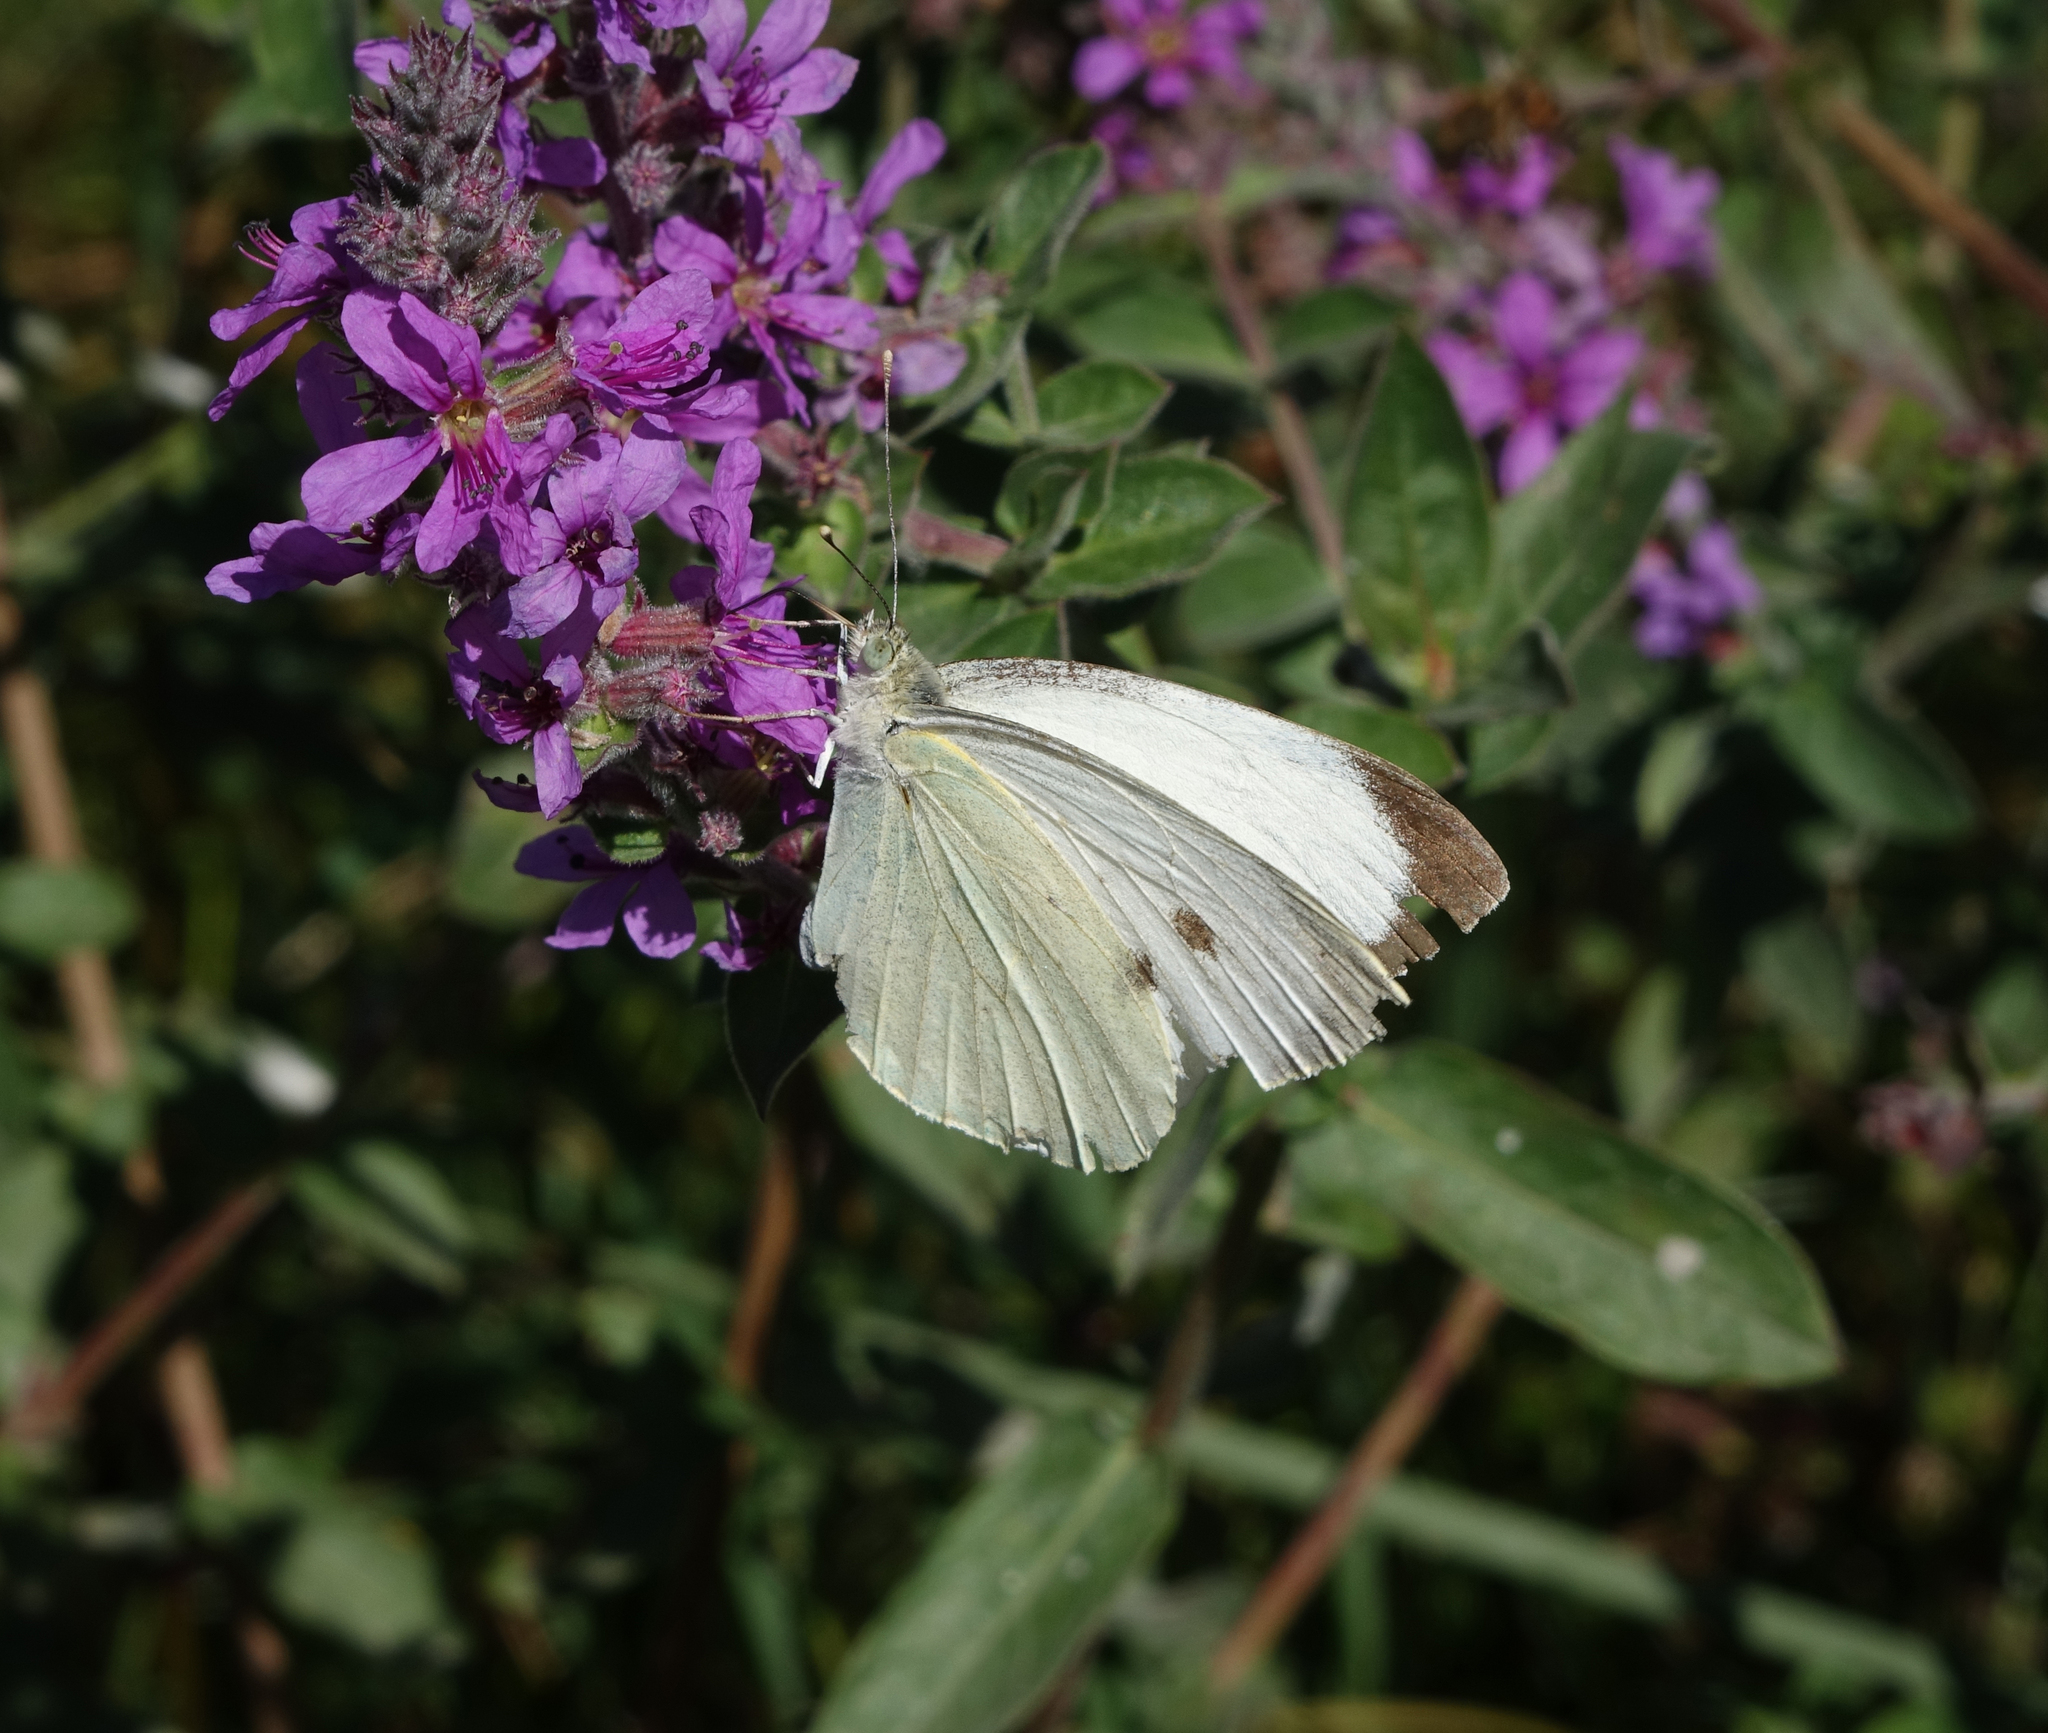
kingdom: Animalia
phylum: Arthropoda
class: Insecta
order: Lepidoptera
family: Pieridae
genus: Pieris
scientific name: Pieris brassicae
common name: Large white
